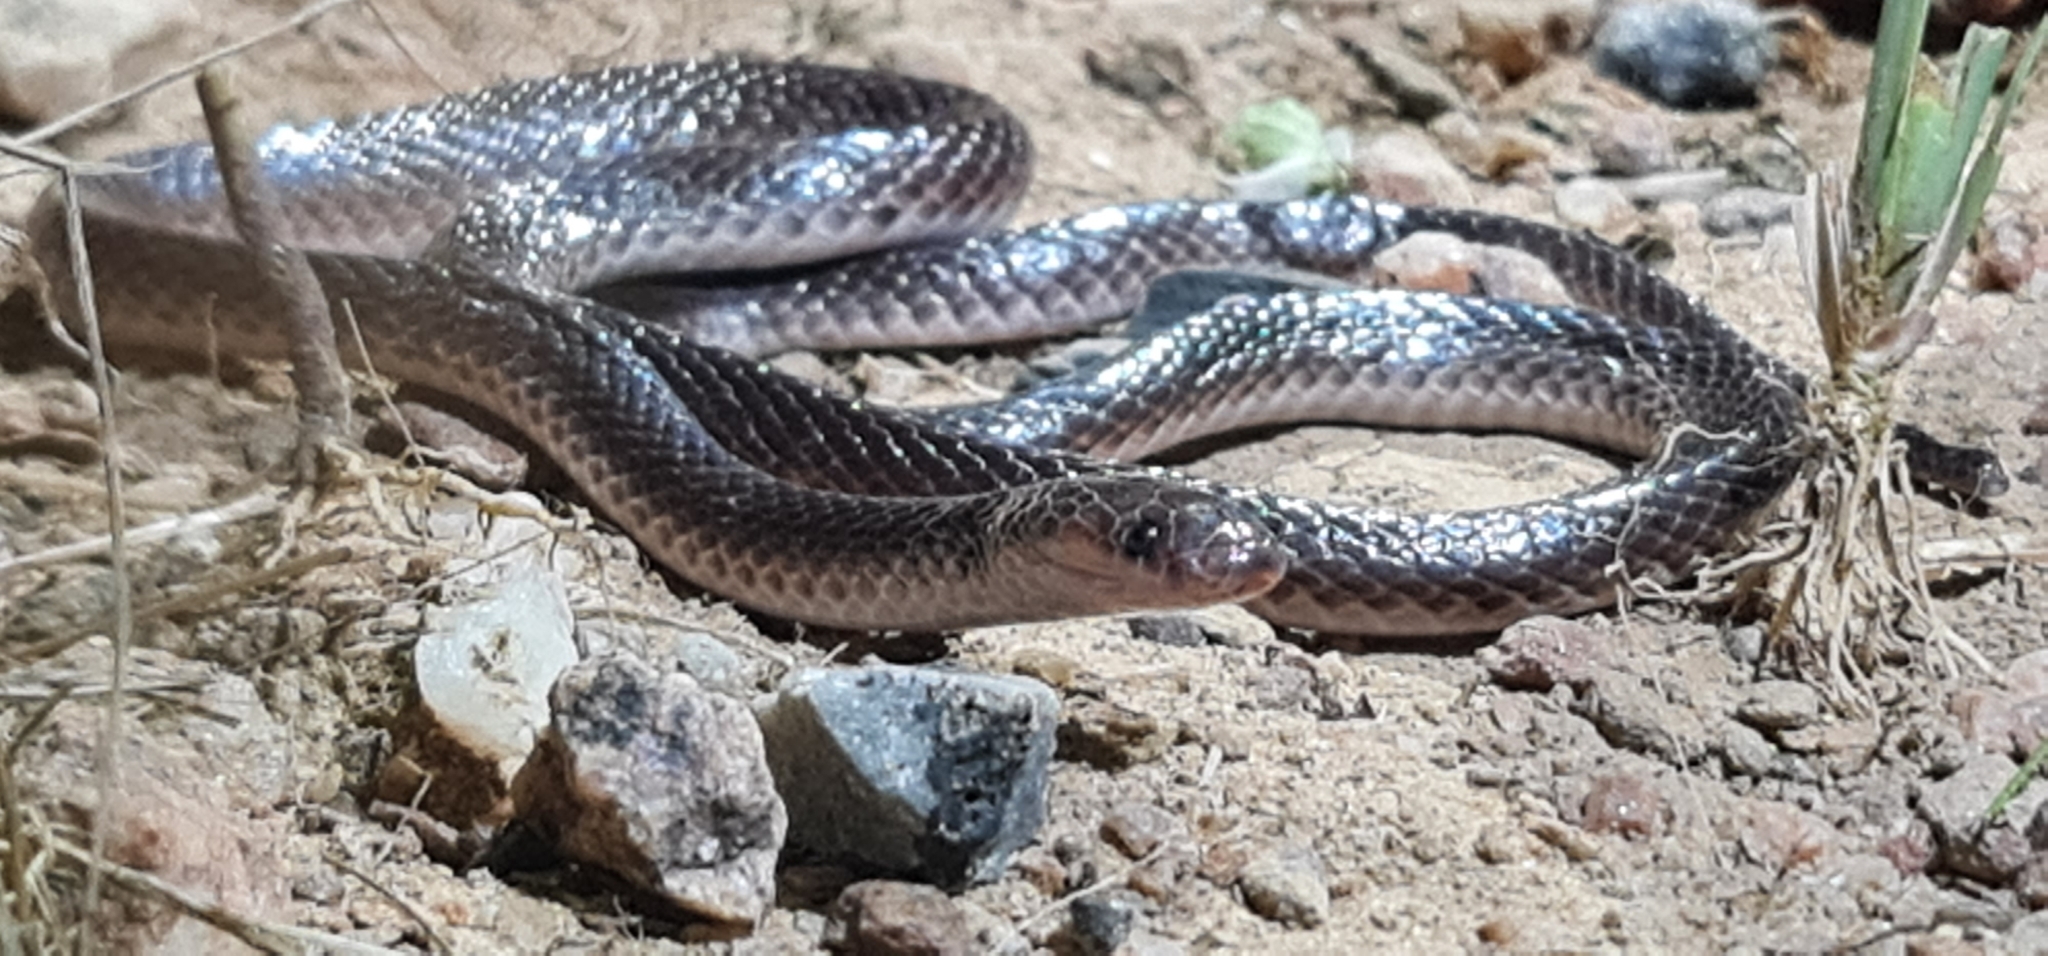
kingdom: Animalia
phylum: Chordata
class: Squamata
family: Elapidae
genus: Cryptophis
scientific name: Cryptophis pallidiceps
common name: Northern small-eyed snake
